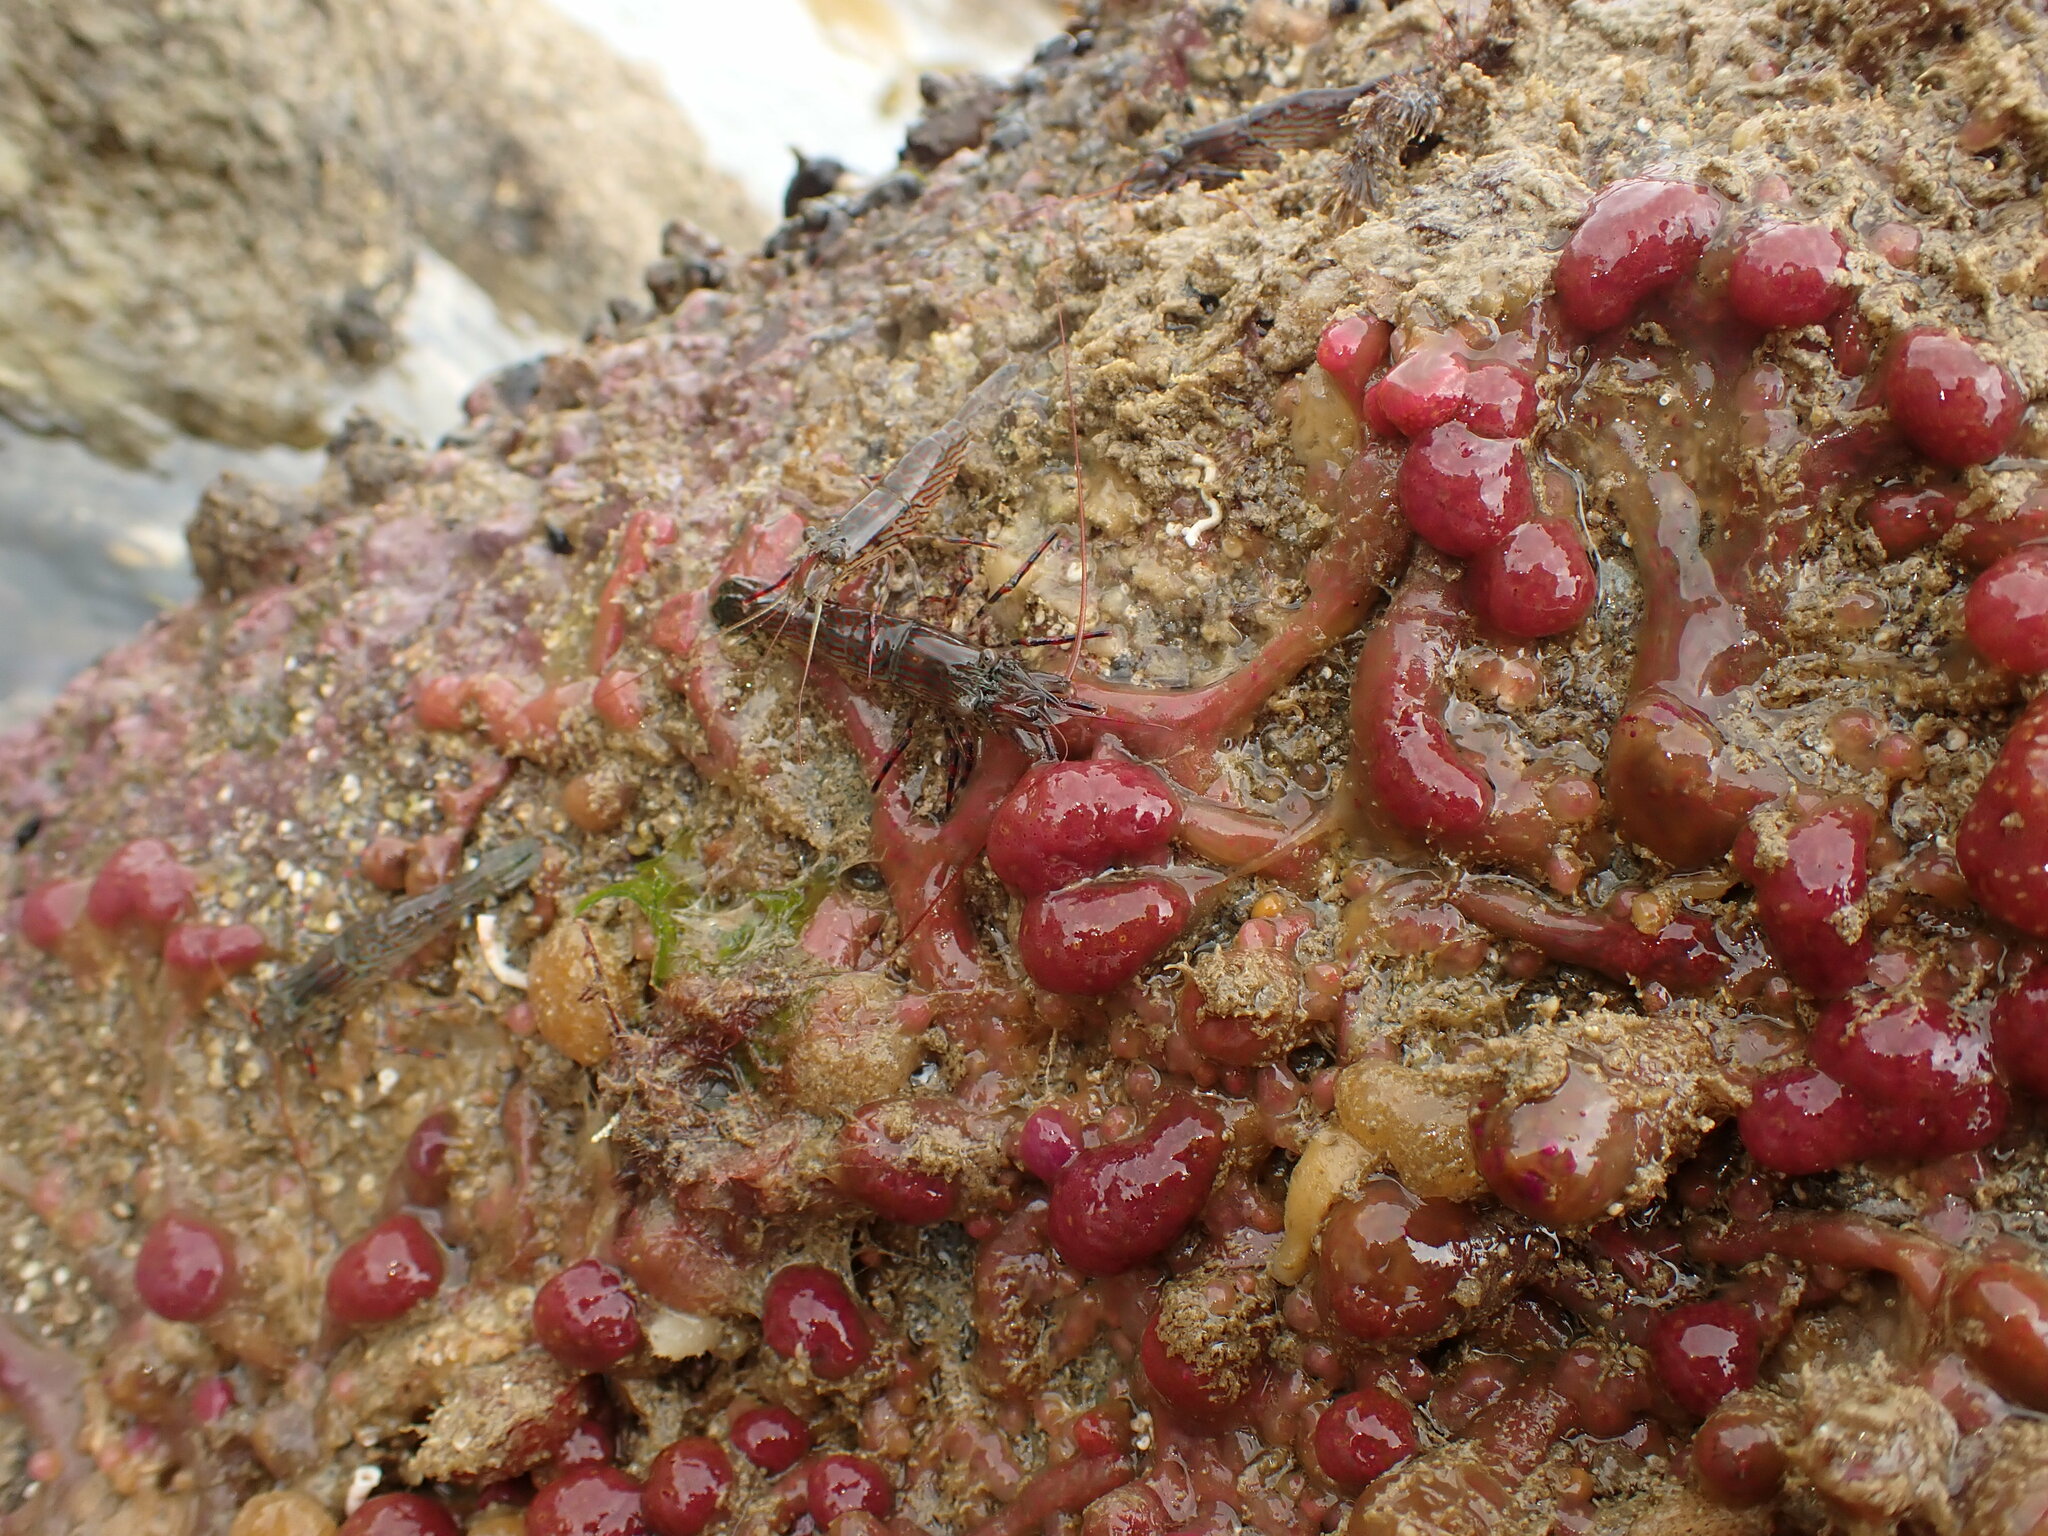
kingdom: Animalia
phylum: Chordata
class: Ascidiacea
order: Aplousobranchia
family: Holozoidae
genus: Hypsistozoa
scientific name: Hypsistozoa fasmeriana
